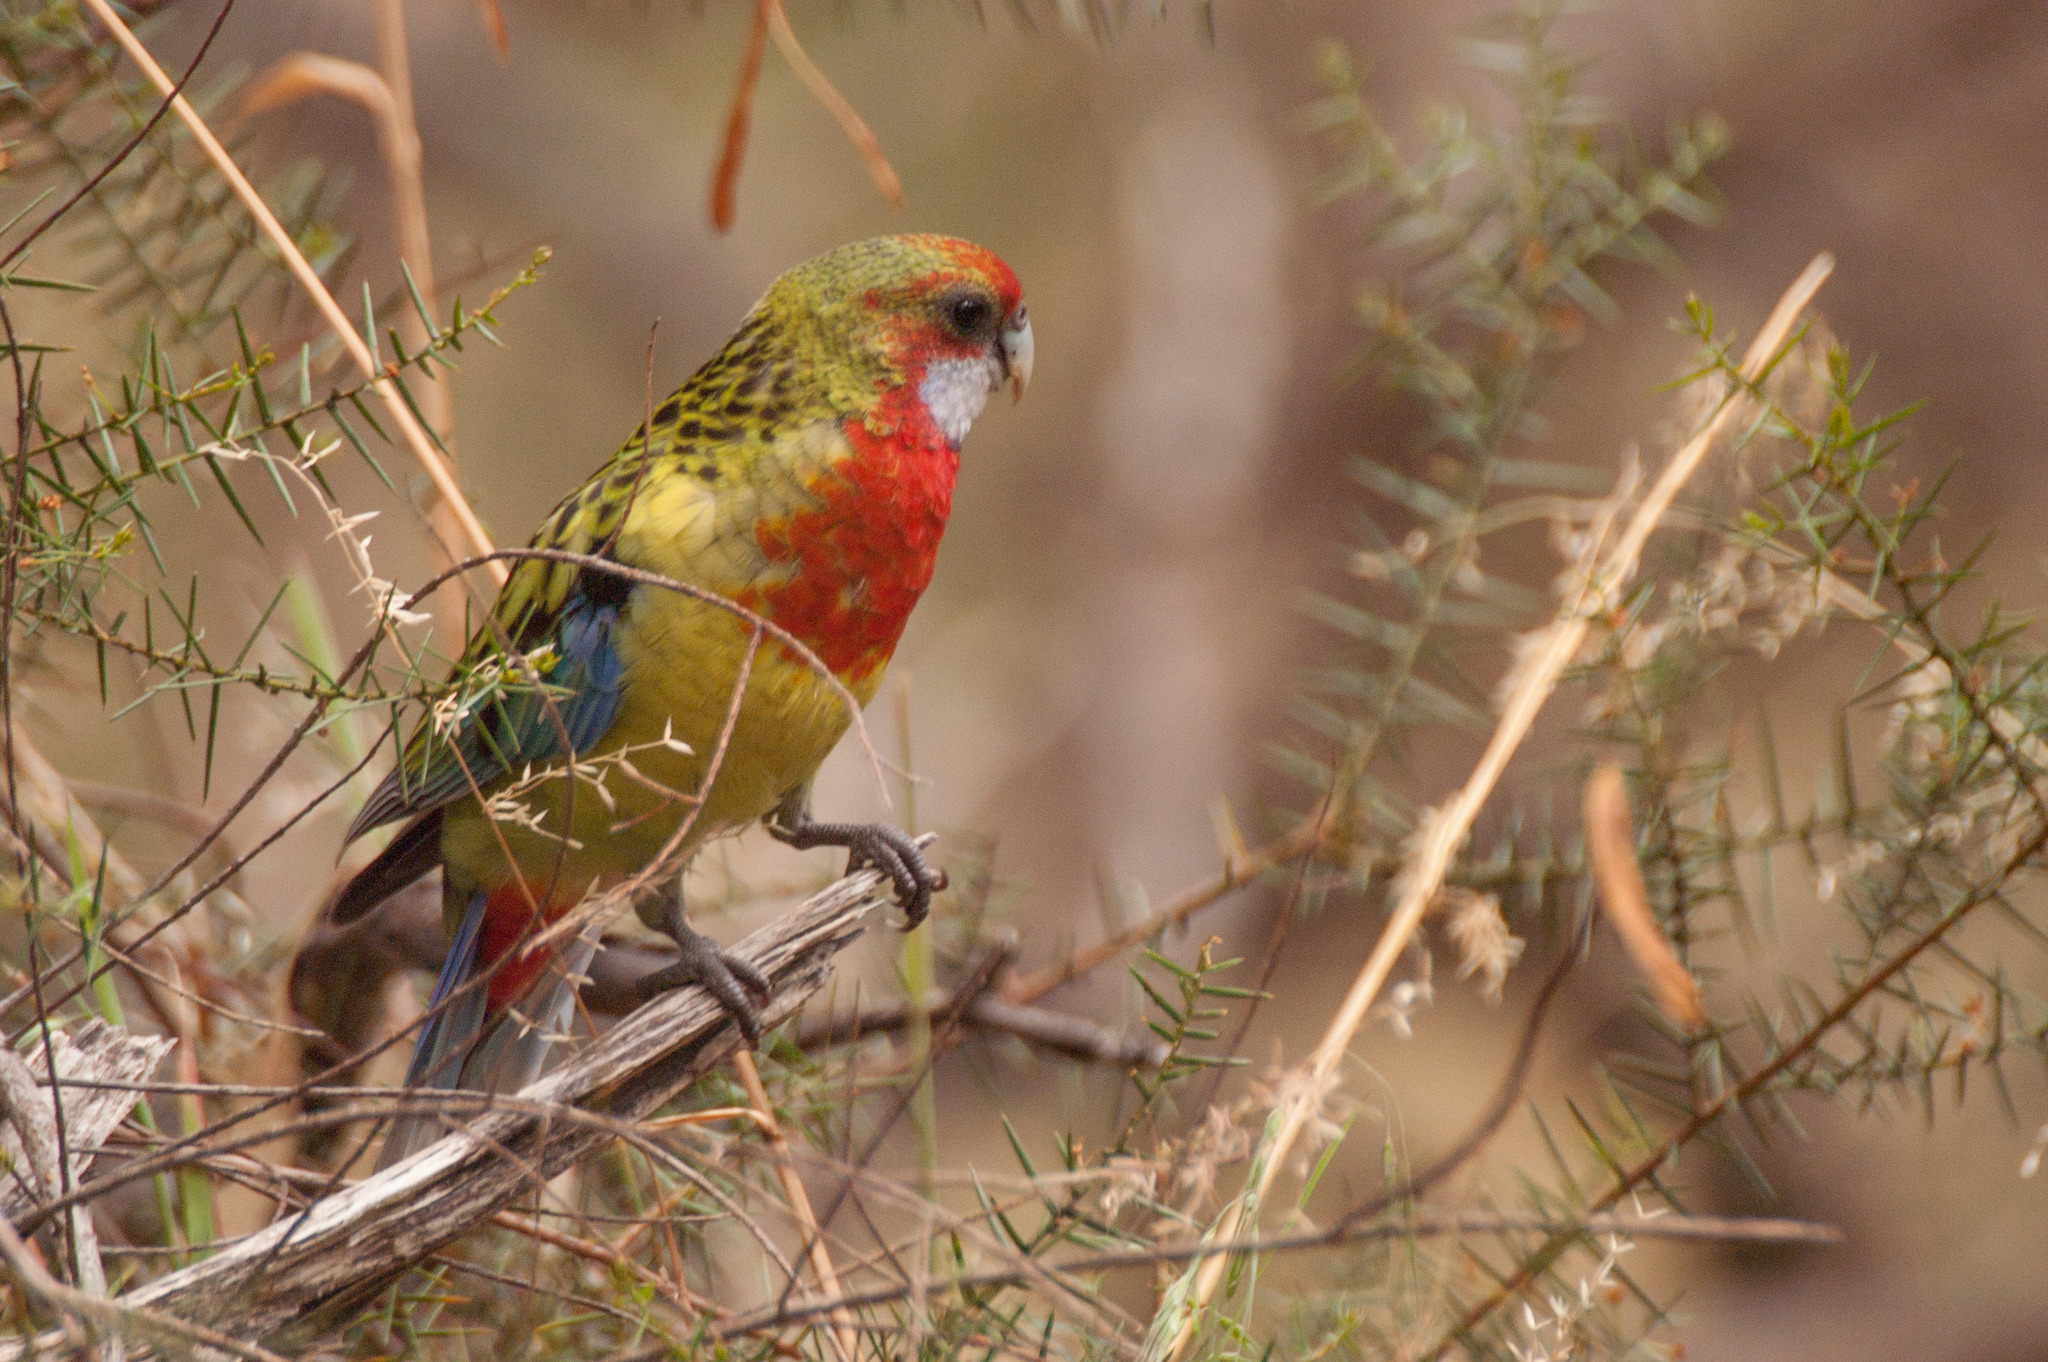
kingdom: Animalia
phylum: Chordata
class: Aves
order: Psittaciformes
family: Psittacidae
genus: Platycercus
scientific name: Platycercus eximius
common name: Eastern rosella
